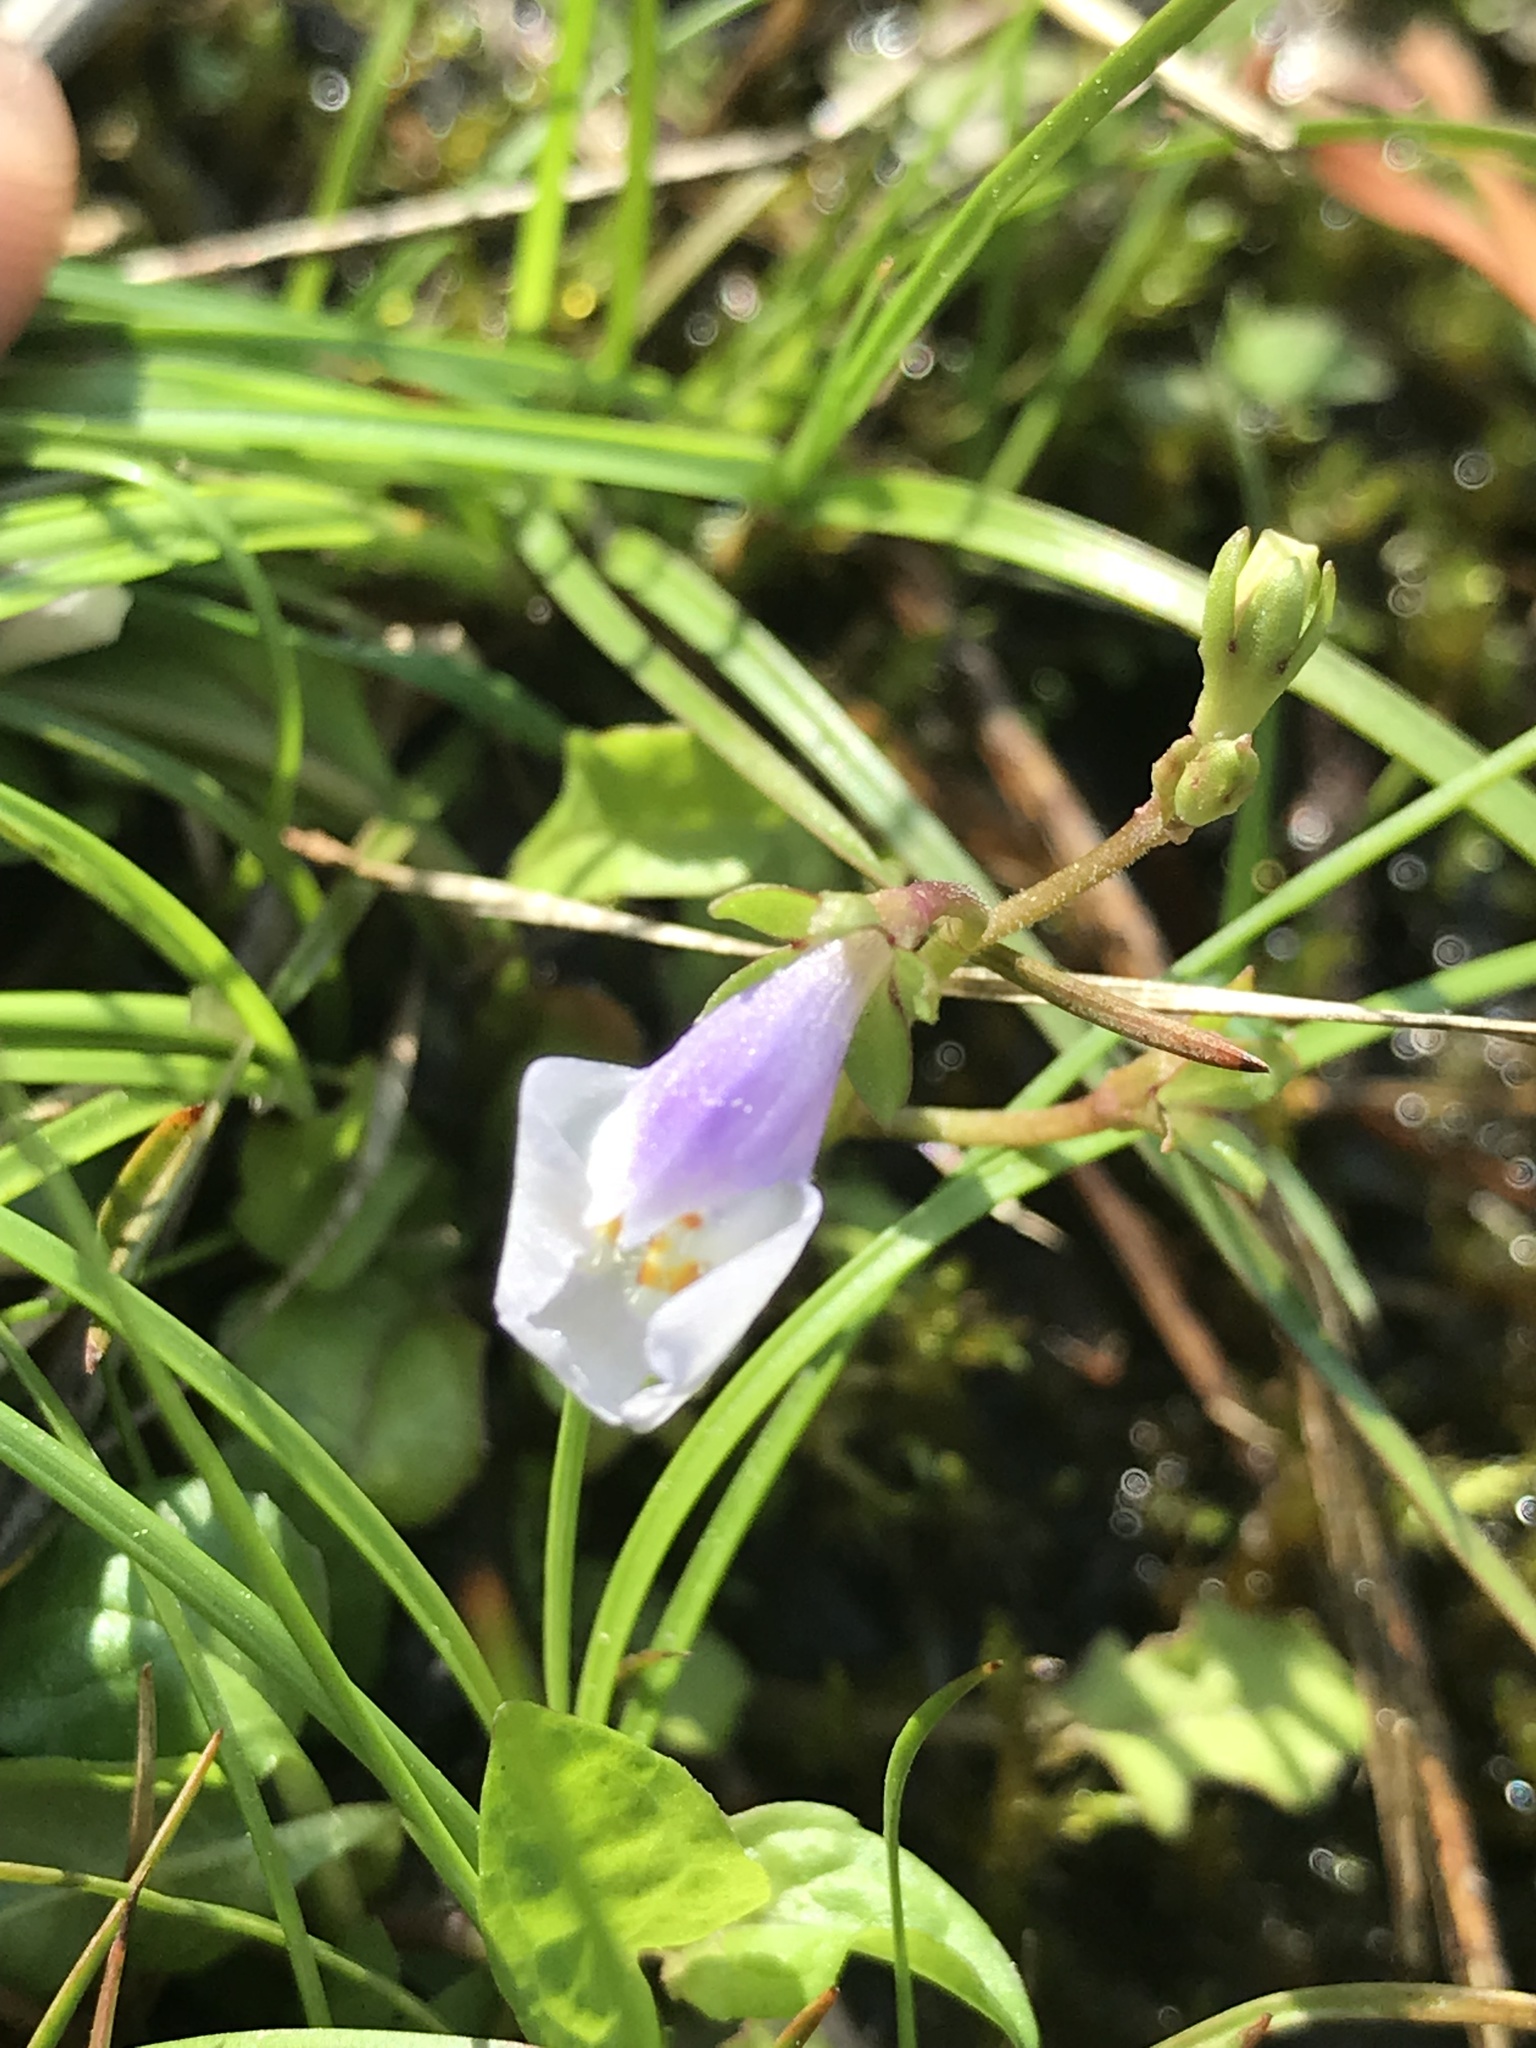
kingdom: Plantae
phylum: Tracheophyta
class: Magnoliopsida
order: Lamiales
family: Mazaceae
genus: Mazus
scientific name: Mazus pumilus
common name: Japanese mazus
